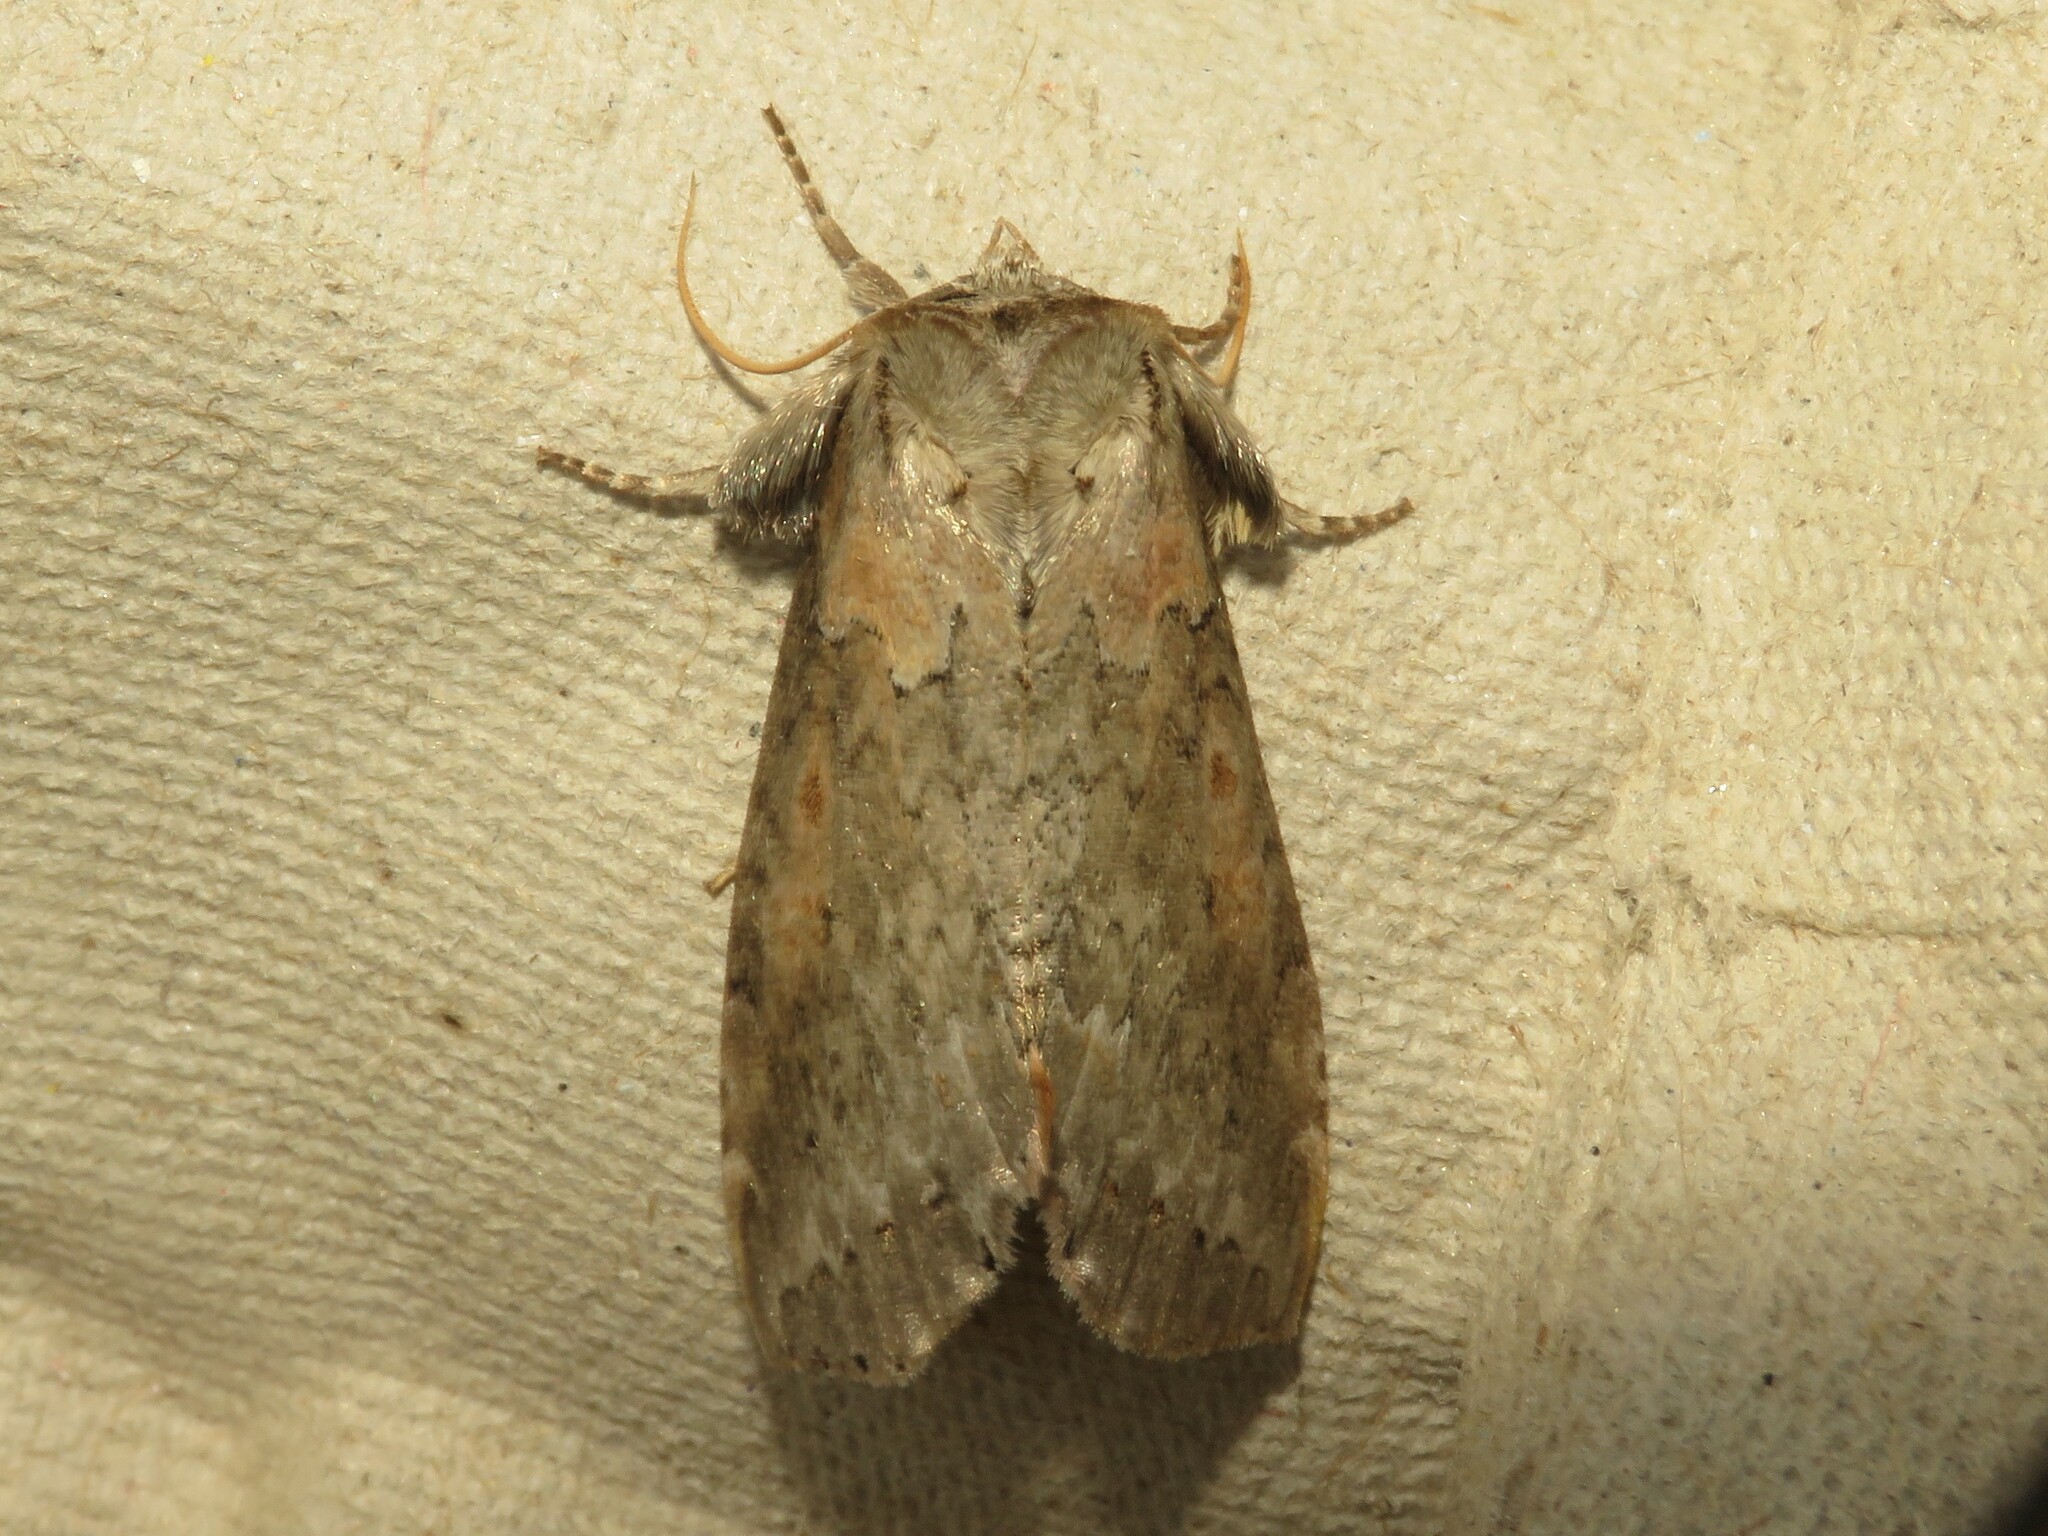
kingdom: Animalia
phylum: Arthropoda
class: Insecta
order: Lepidoptera
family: Drepanidae
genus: Pseudothyatira
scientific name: Pseudothyatira cymatophoroides
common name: Tufted thyatirid moth
